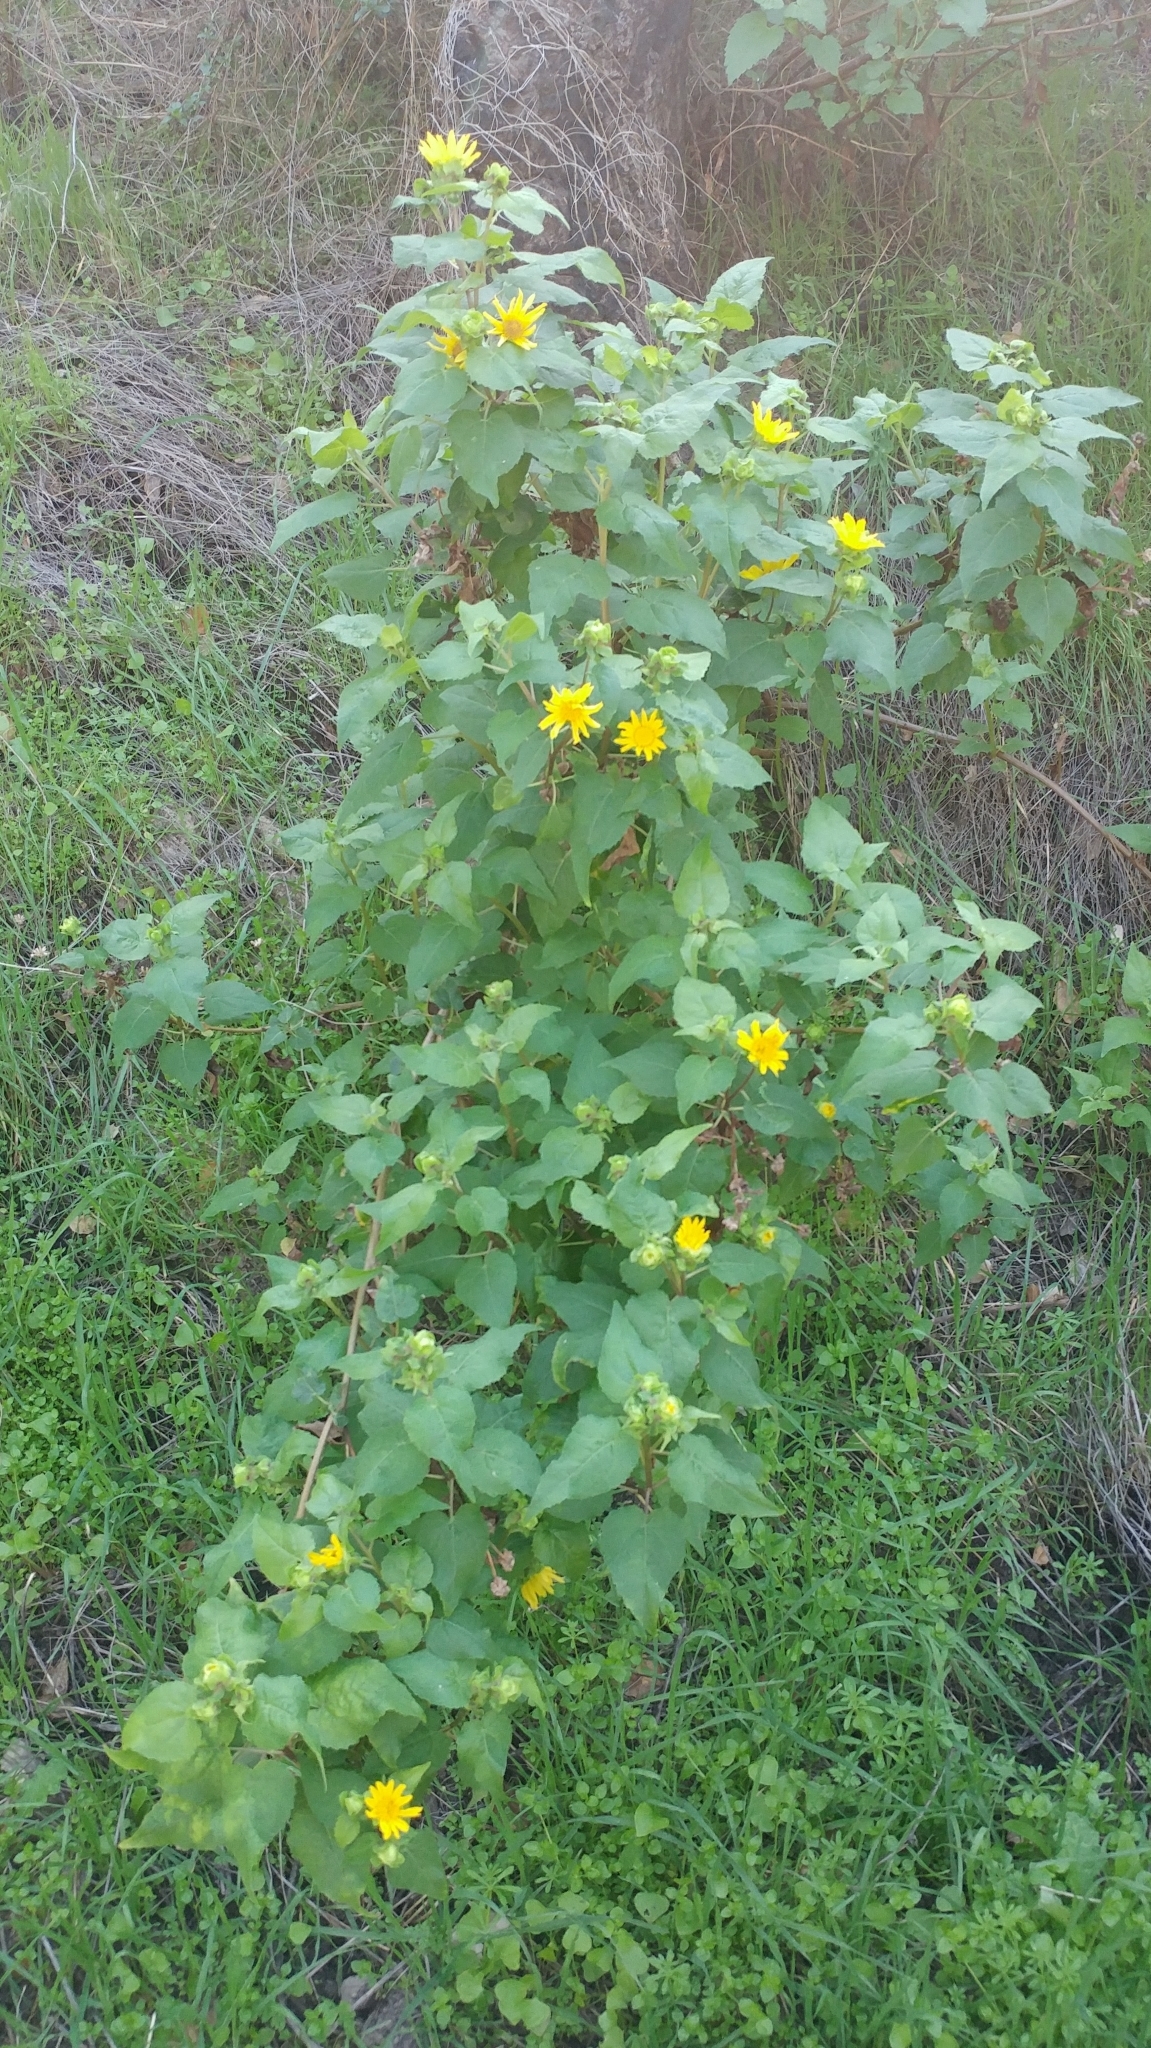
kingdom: Plantae
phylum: Tracheophyta
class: Magnoliopsida
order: Asterales
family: Asteraceae
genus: Venegasia
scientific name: Venegasia carpesioides
